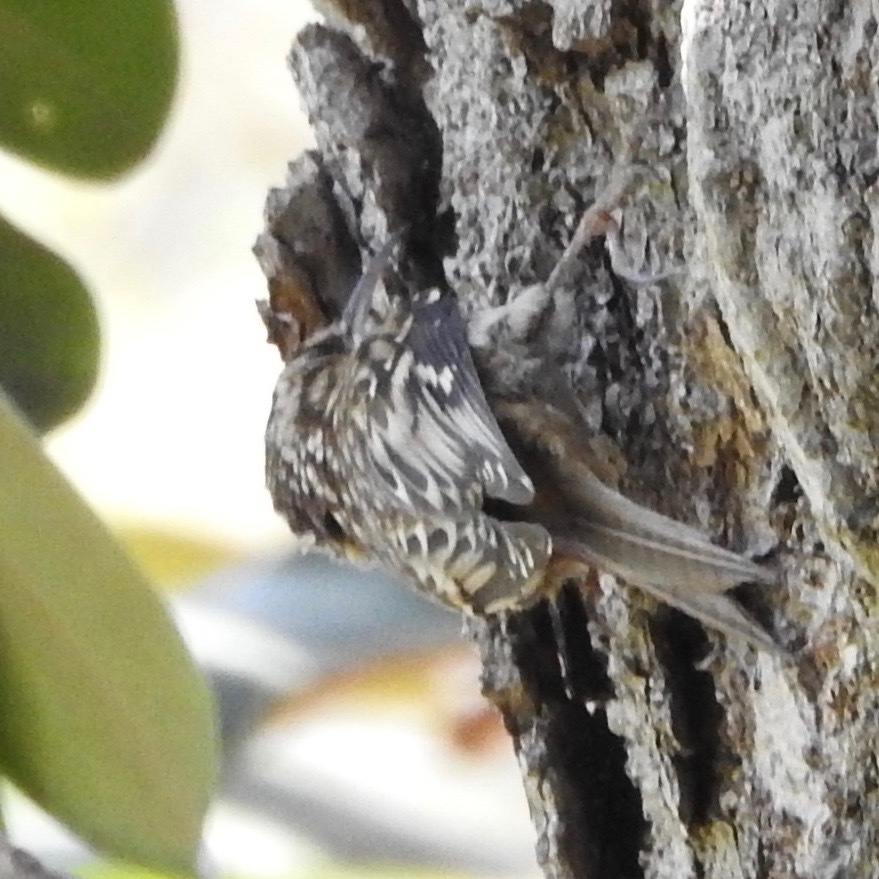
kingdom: Animalia
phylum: Chordata
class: Aves
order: Passeriformes
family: Certhiidae
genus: Certhia
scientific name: Certhia americana
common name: Brown creeper
